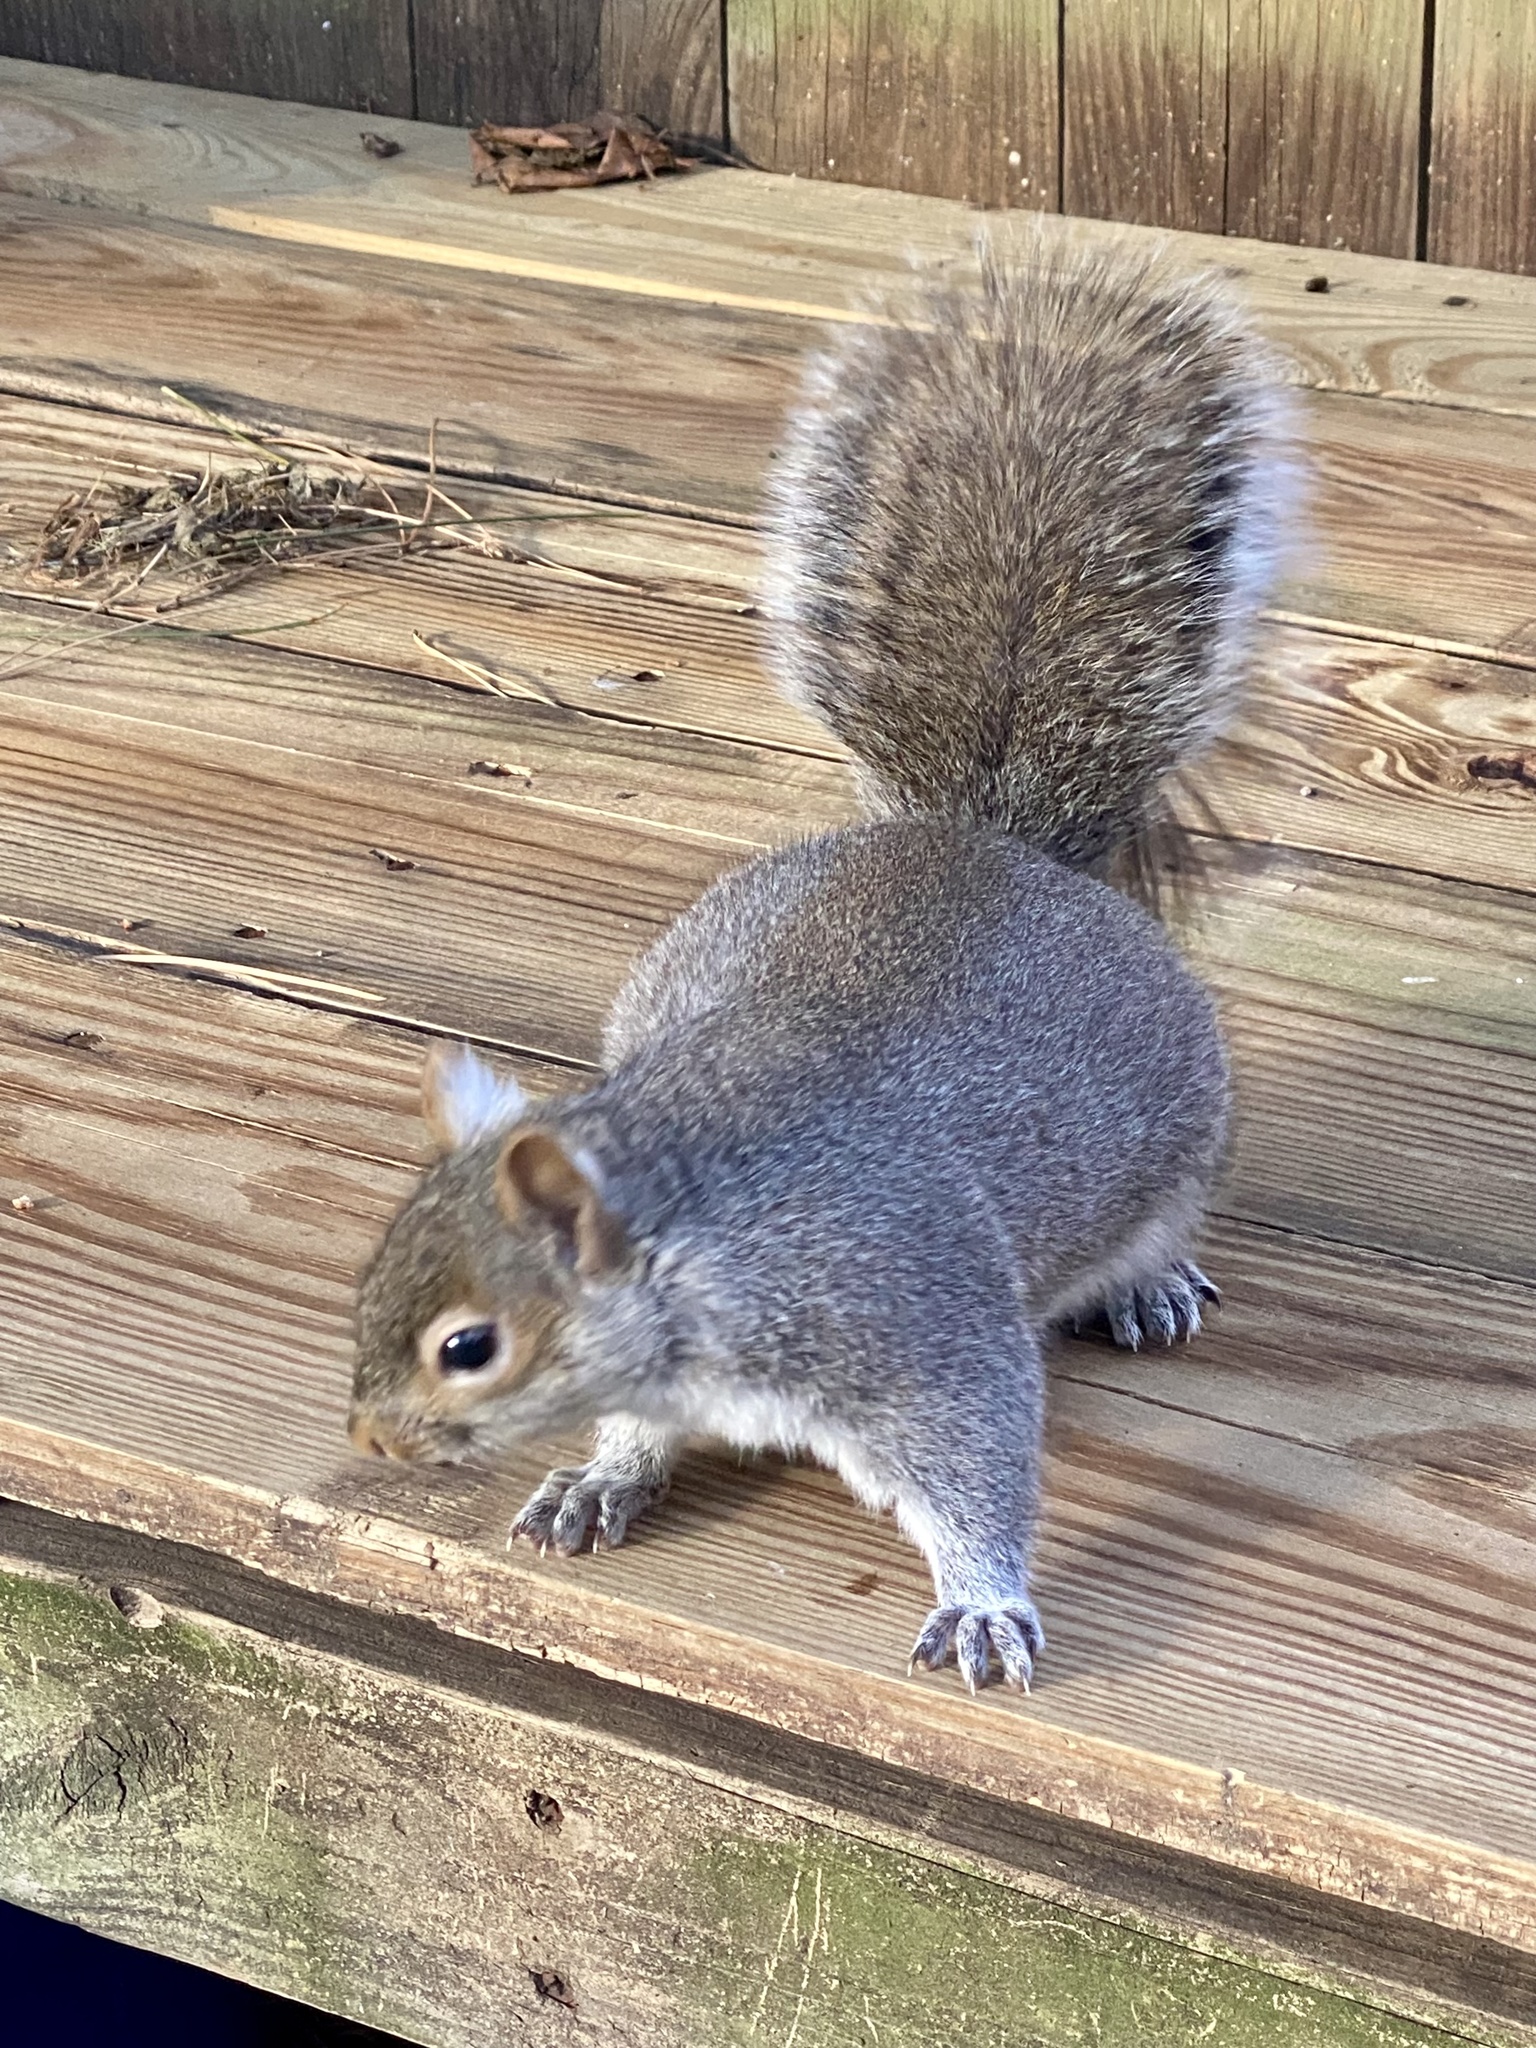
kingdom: Animalia
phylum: Chordata
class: Mammalia
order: Rodentia
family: Sciuridae
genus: Sciurus
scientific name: Sciurus carolinensis
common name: Eastern gray squirrel
